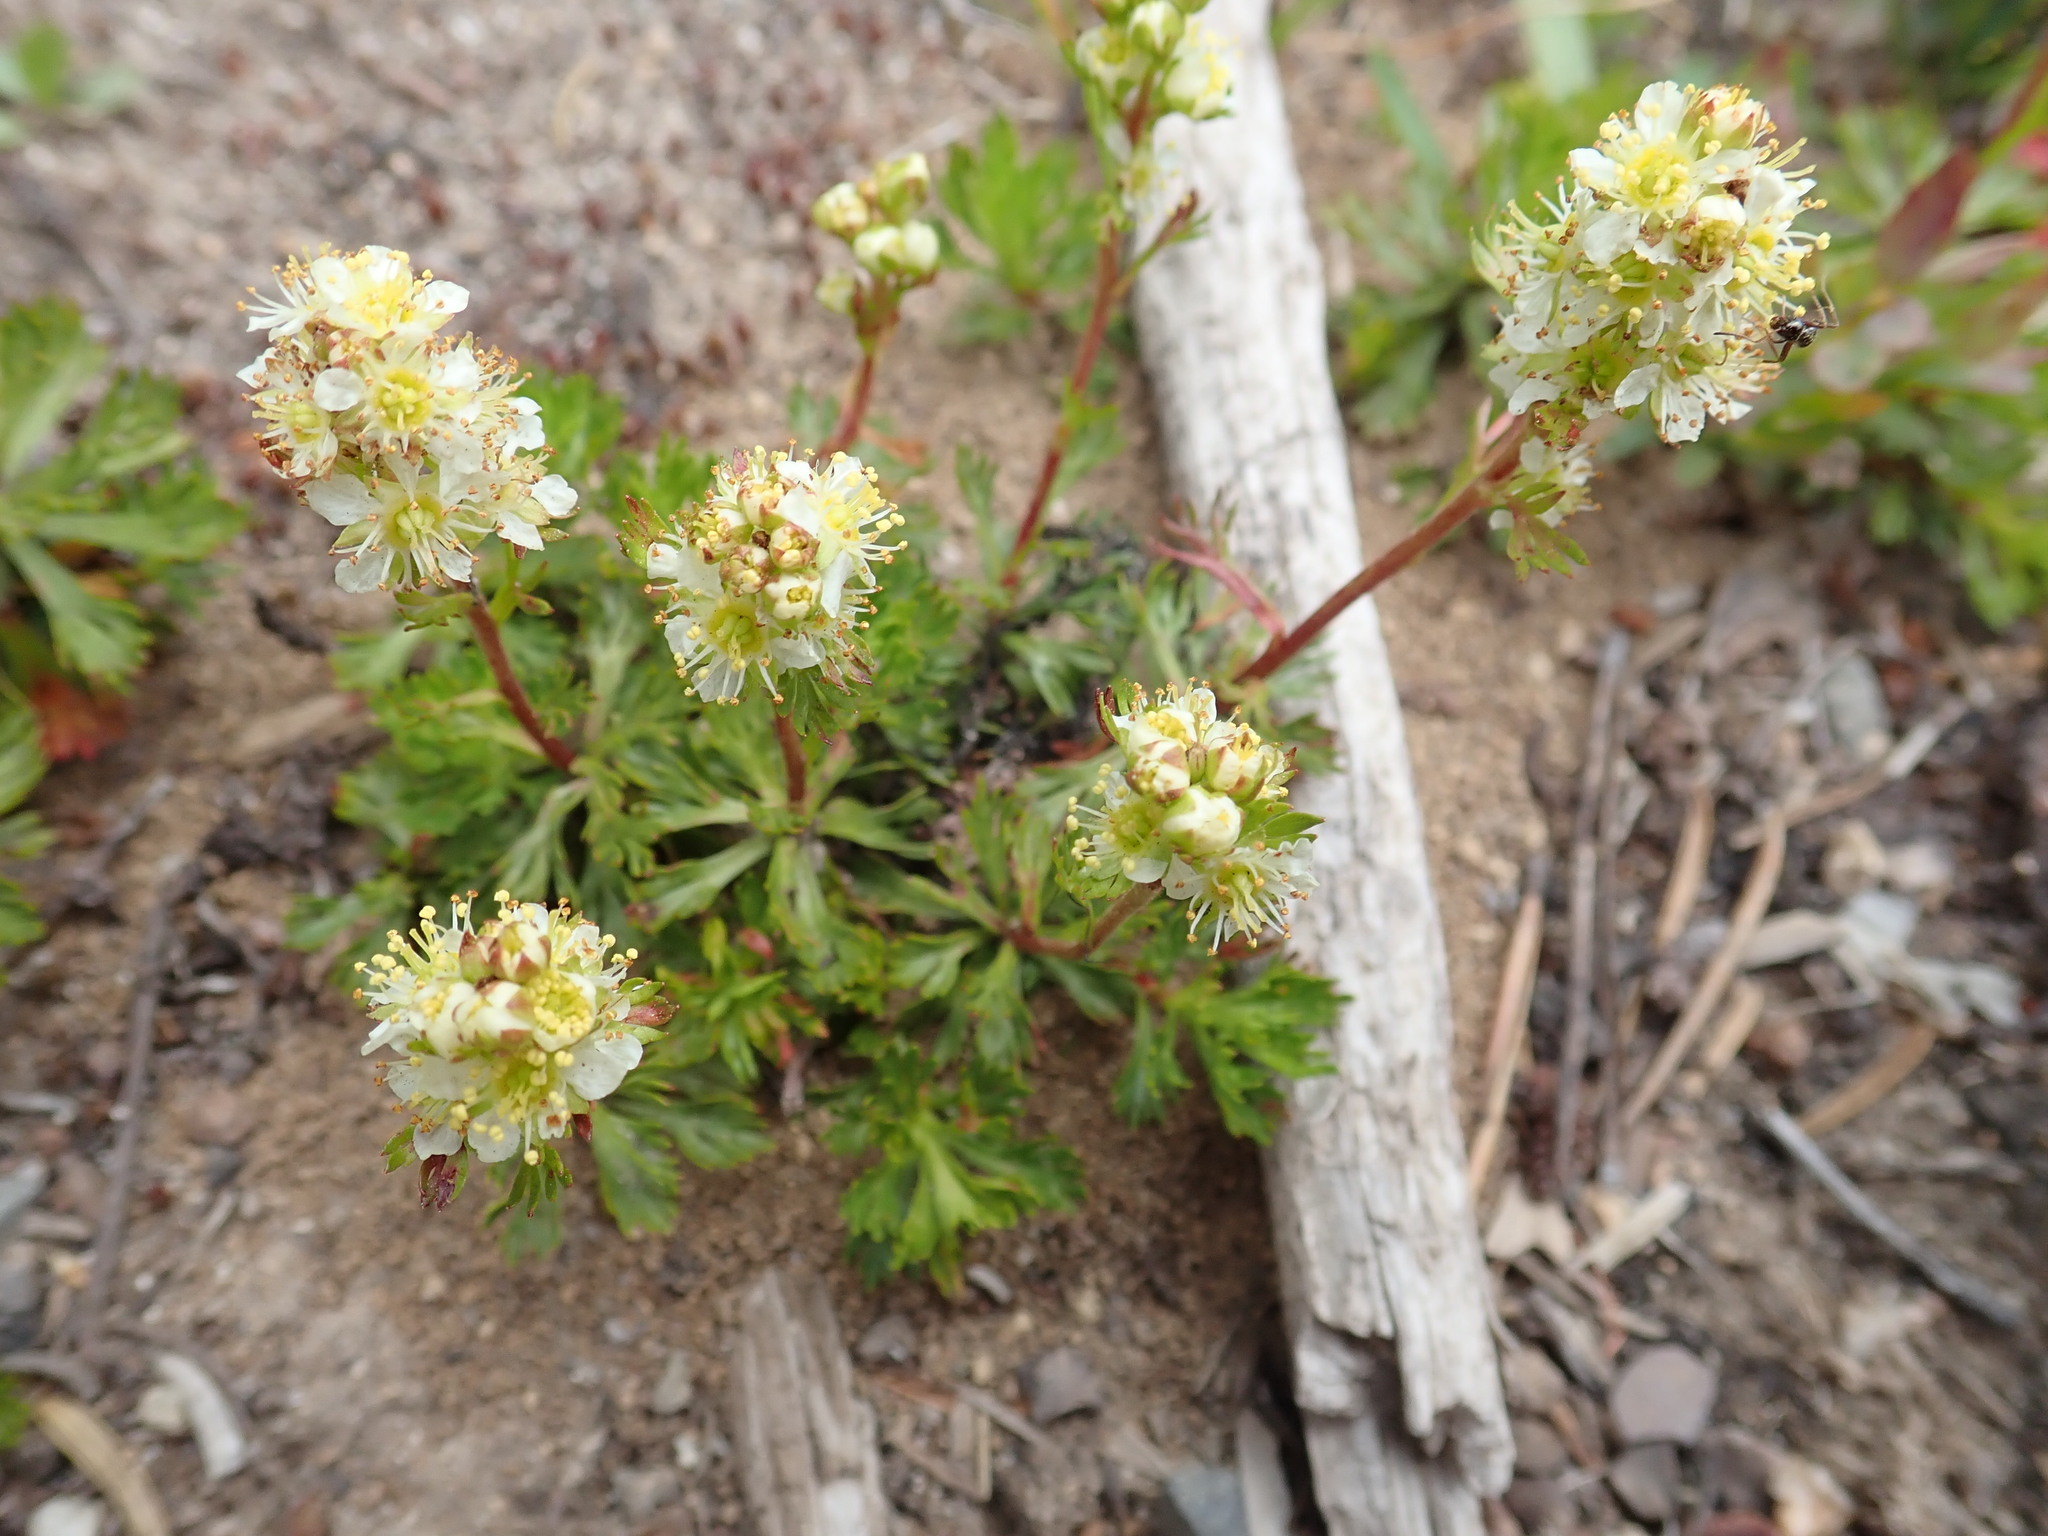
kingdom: Plantae
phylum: Tracheophyta
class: Magnoliopsida
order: Rosales
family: Rosaceae
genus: Luetkea
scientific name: Luetkea pectinata
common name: Partridgefoot
